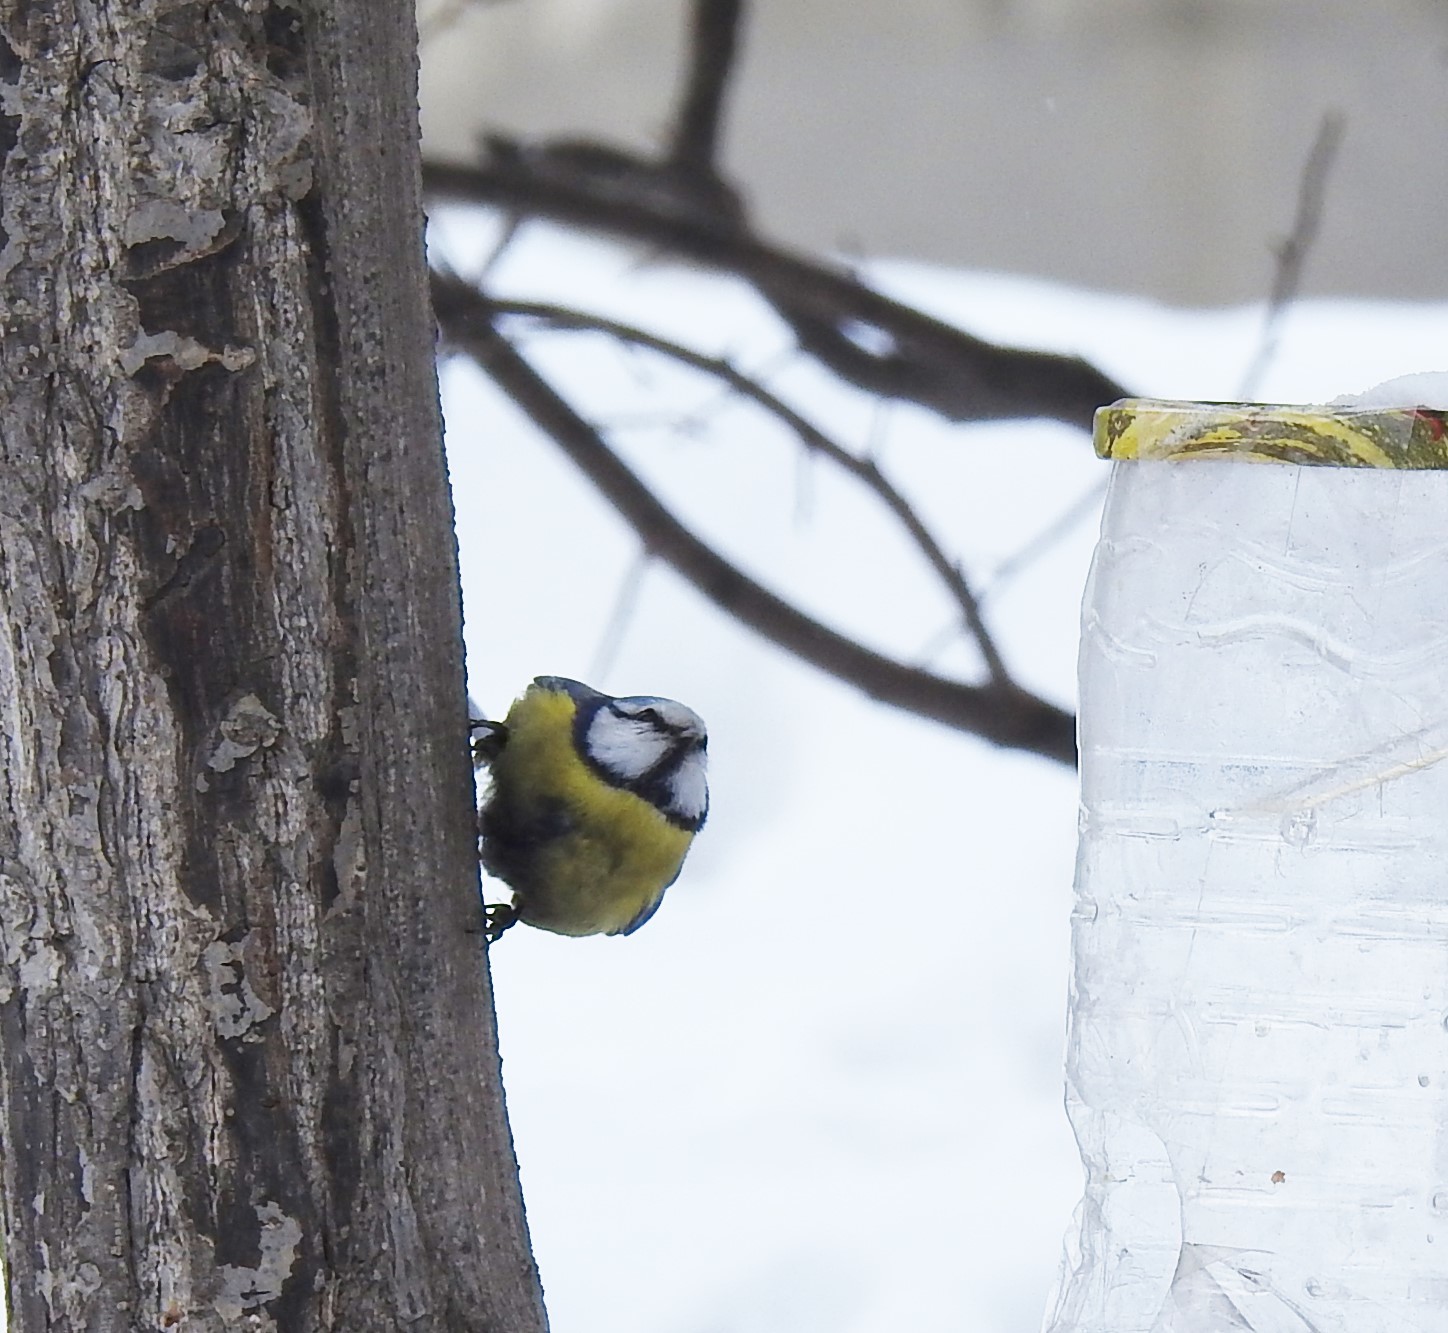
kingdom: Animalia
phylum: Chordata
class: Aves
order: Passeriformes
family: Paridae
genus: Cyanistes
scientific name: Cyanistes caeruleus
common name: Eurasian blue tit
